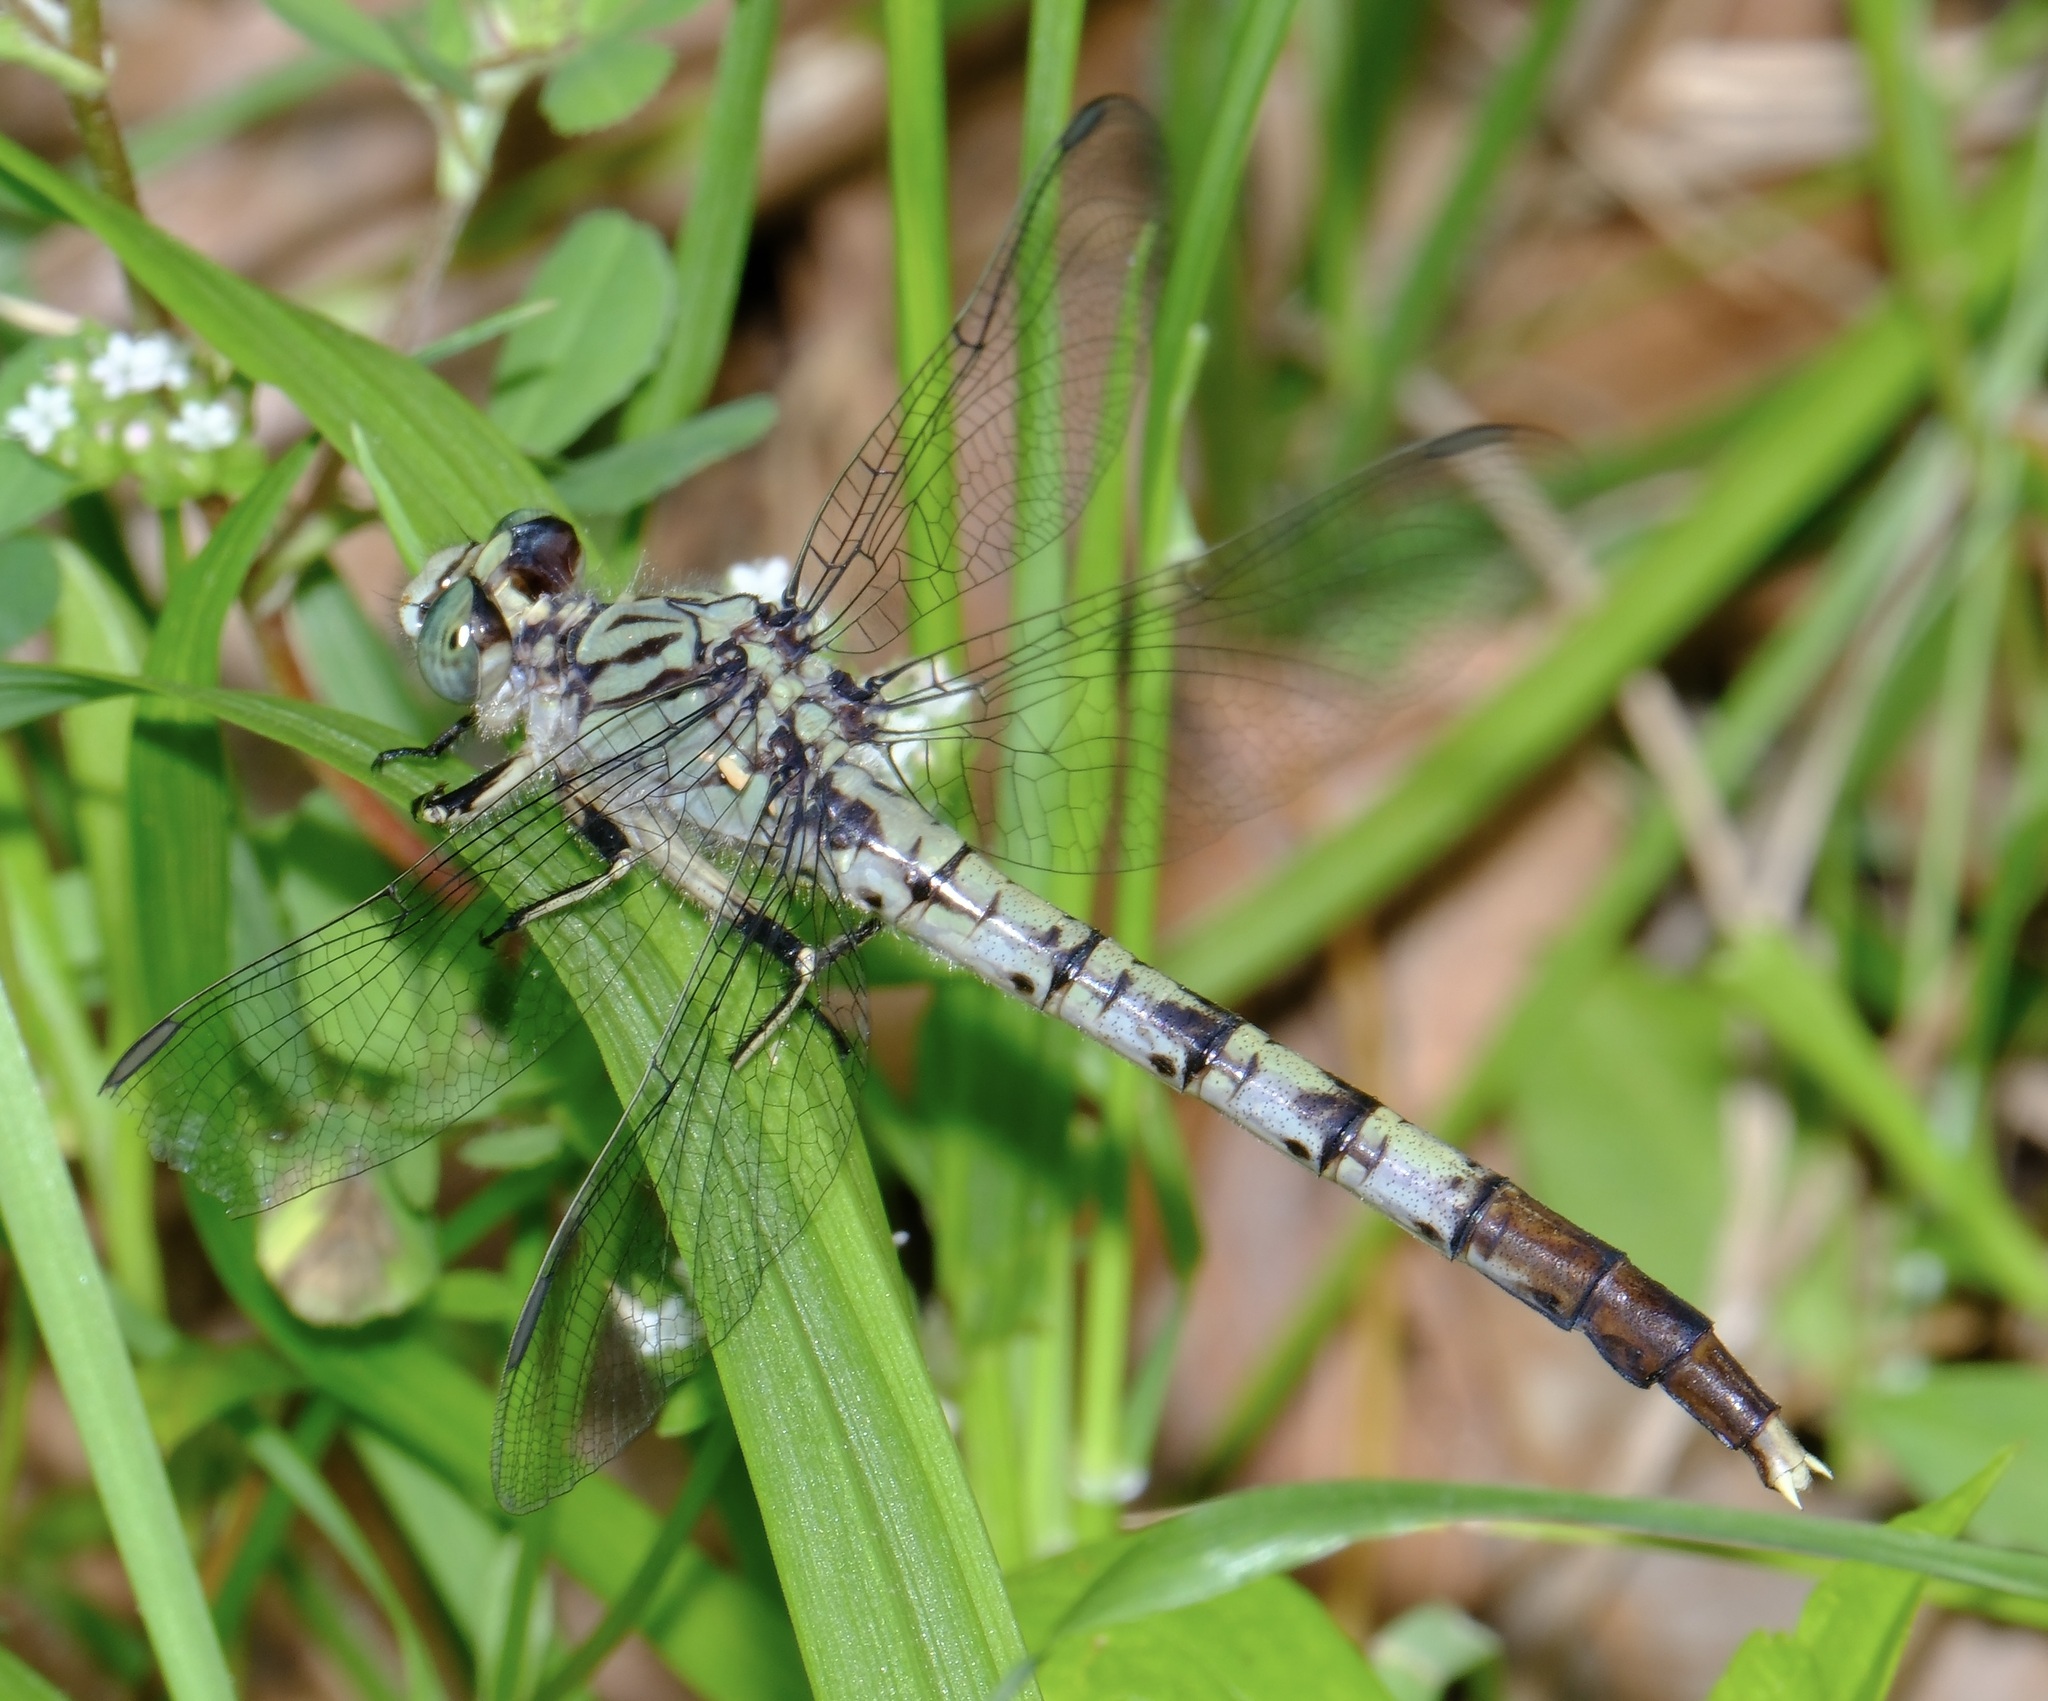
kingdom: Animalia
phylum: Arthropoda
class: Insecta
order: Odonata
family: Gomphidae
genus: Arigomphus
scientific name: Arigomphus maxwelli
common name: Bayou clubtail
